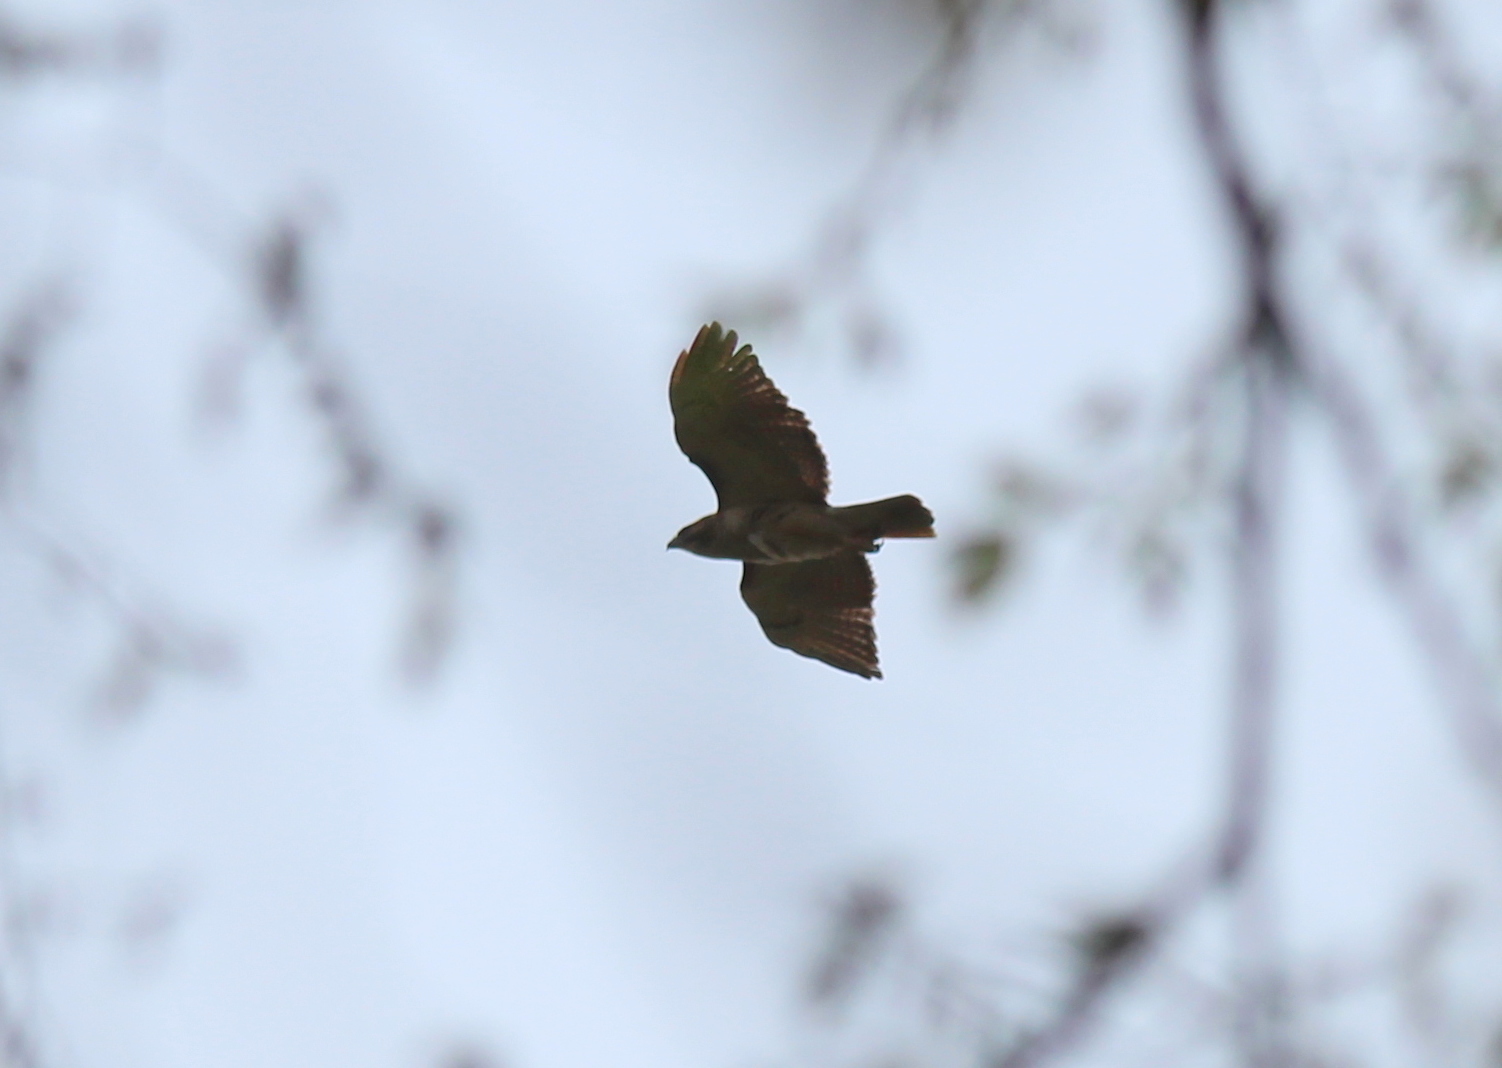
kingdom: Animalia
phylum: Chordata
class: Aves
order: Accipitriformes
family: Accipitridae
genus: Buteo
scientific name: Buteo jamaicensis
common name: Red-tailed hawk
